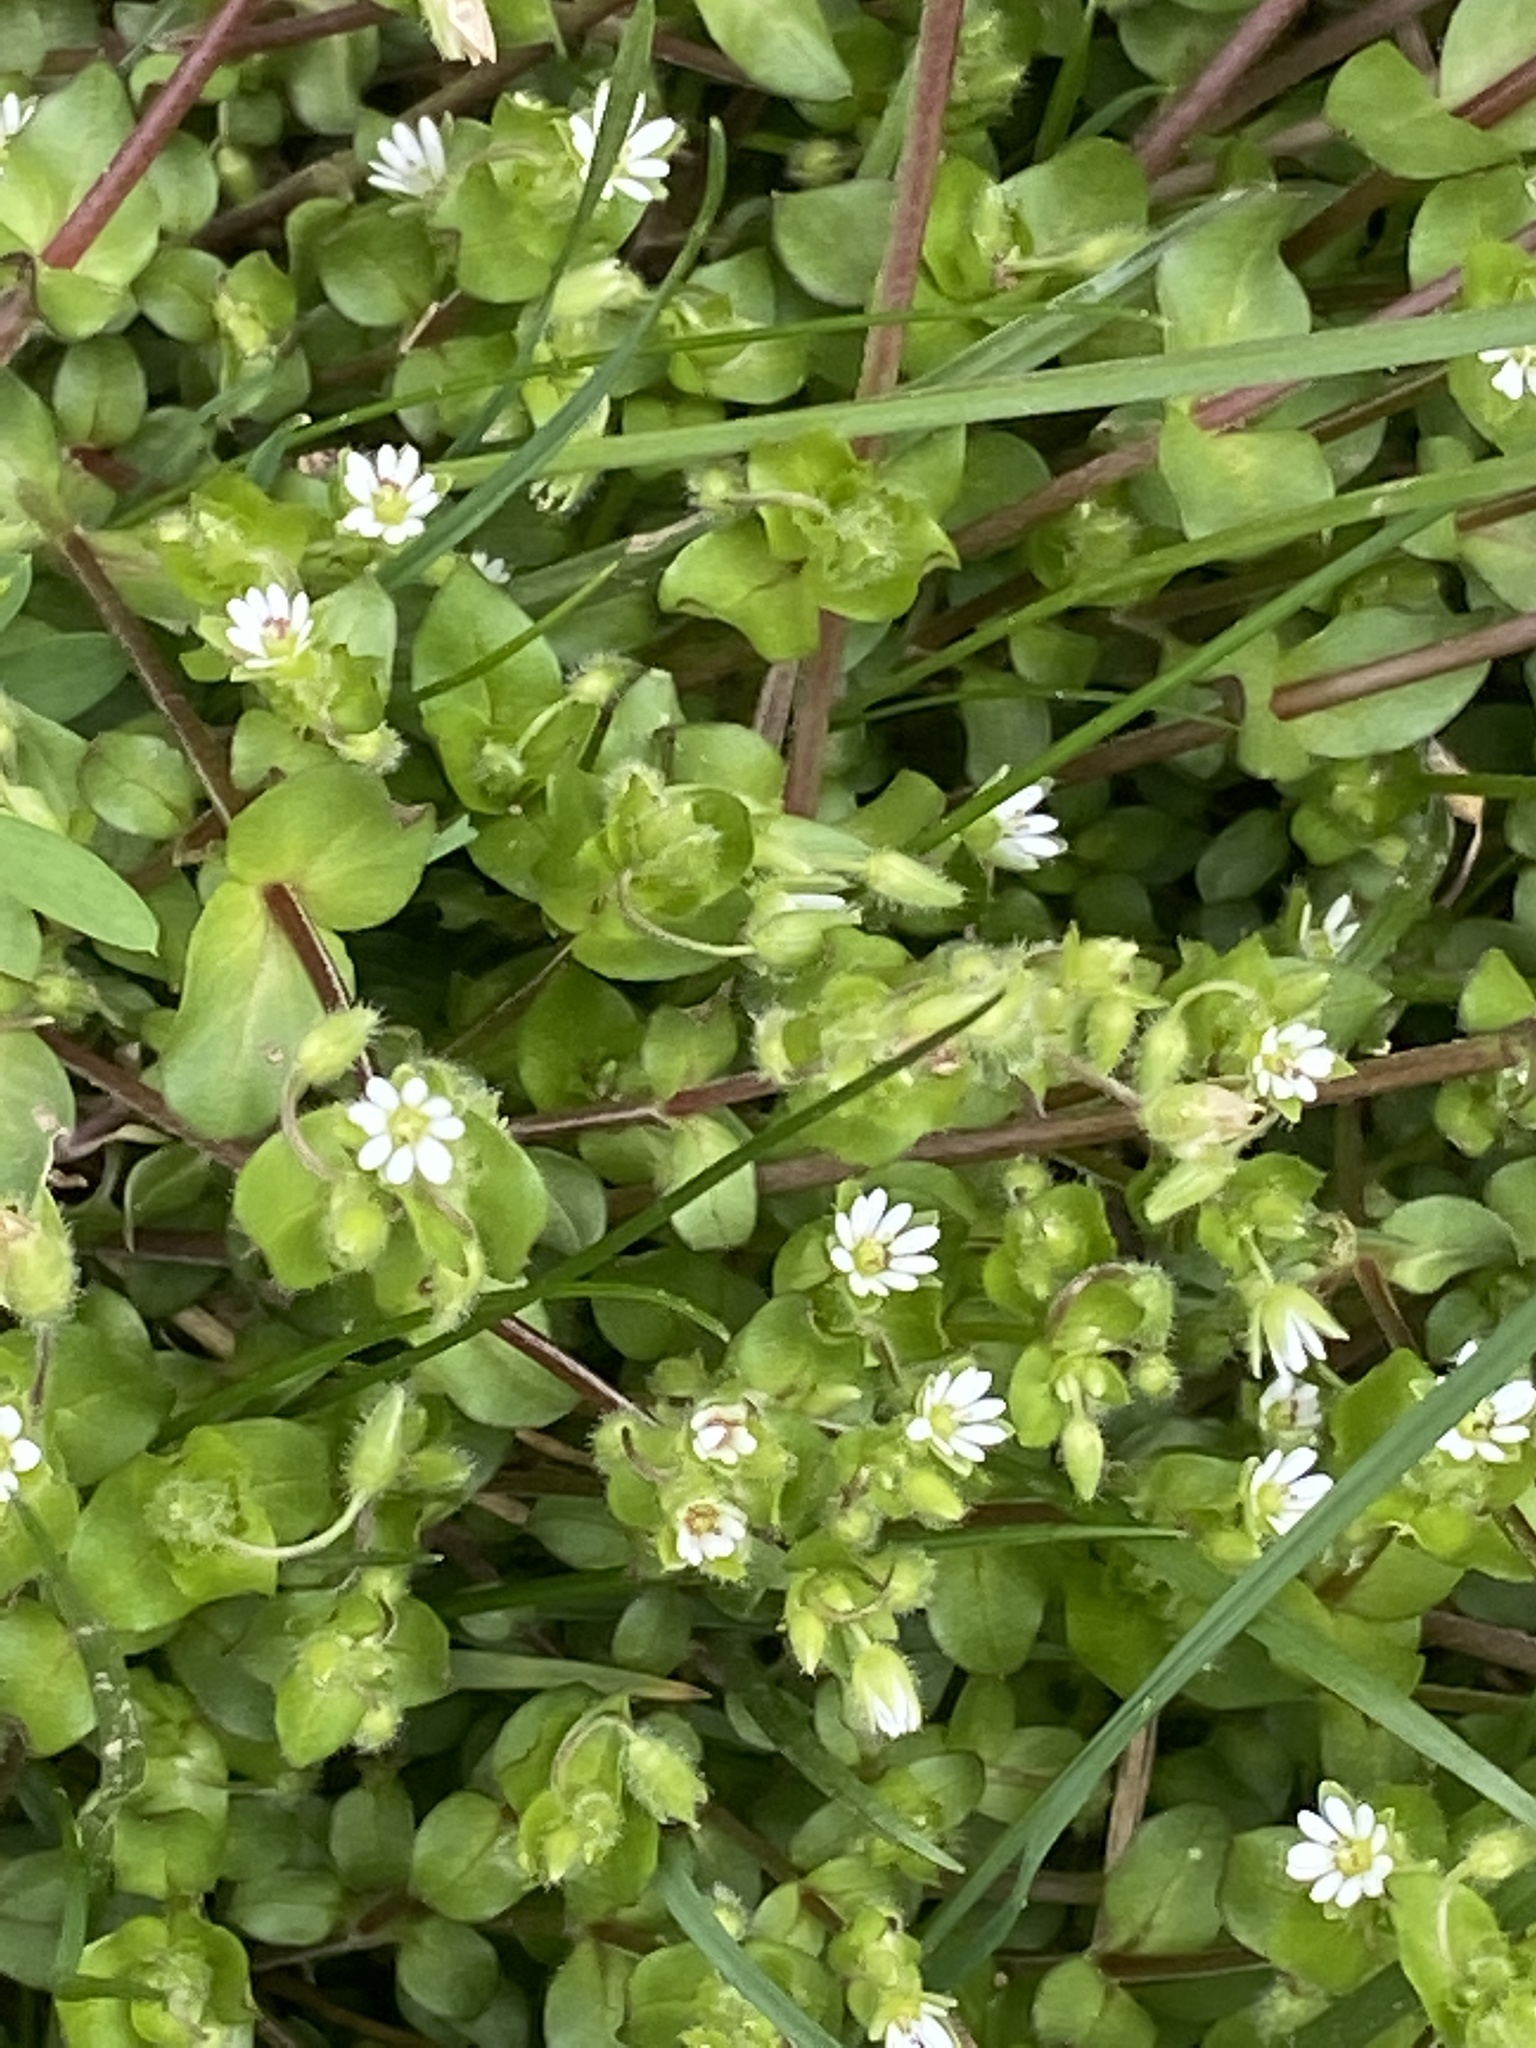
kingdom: Plantae
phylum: Tracheophyta
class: Magnoliopsida
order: Caryophyllales
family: Caryophyllaceae
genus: Stellaria
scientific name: Stellaria media
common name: Common chickweed
